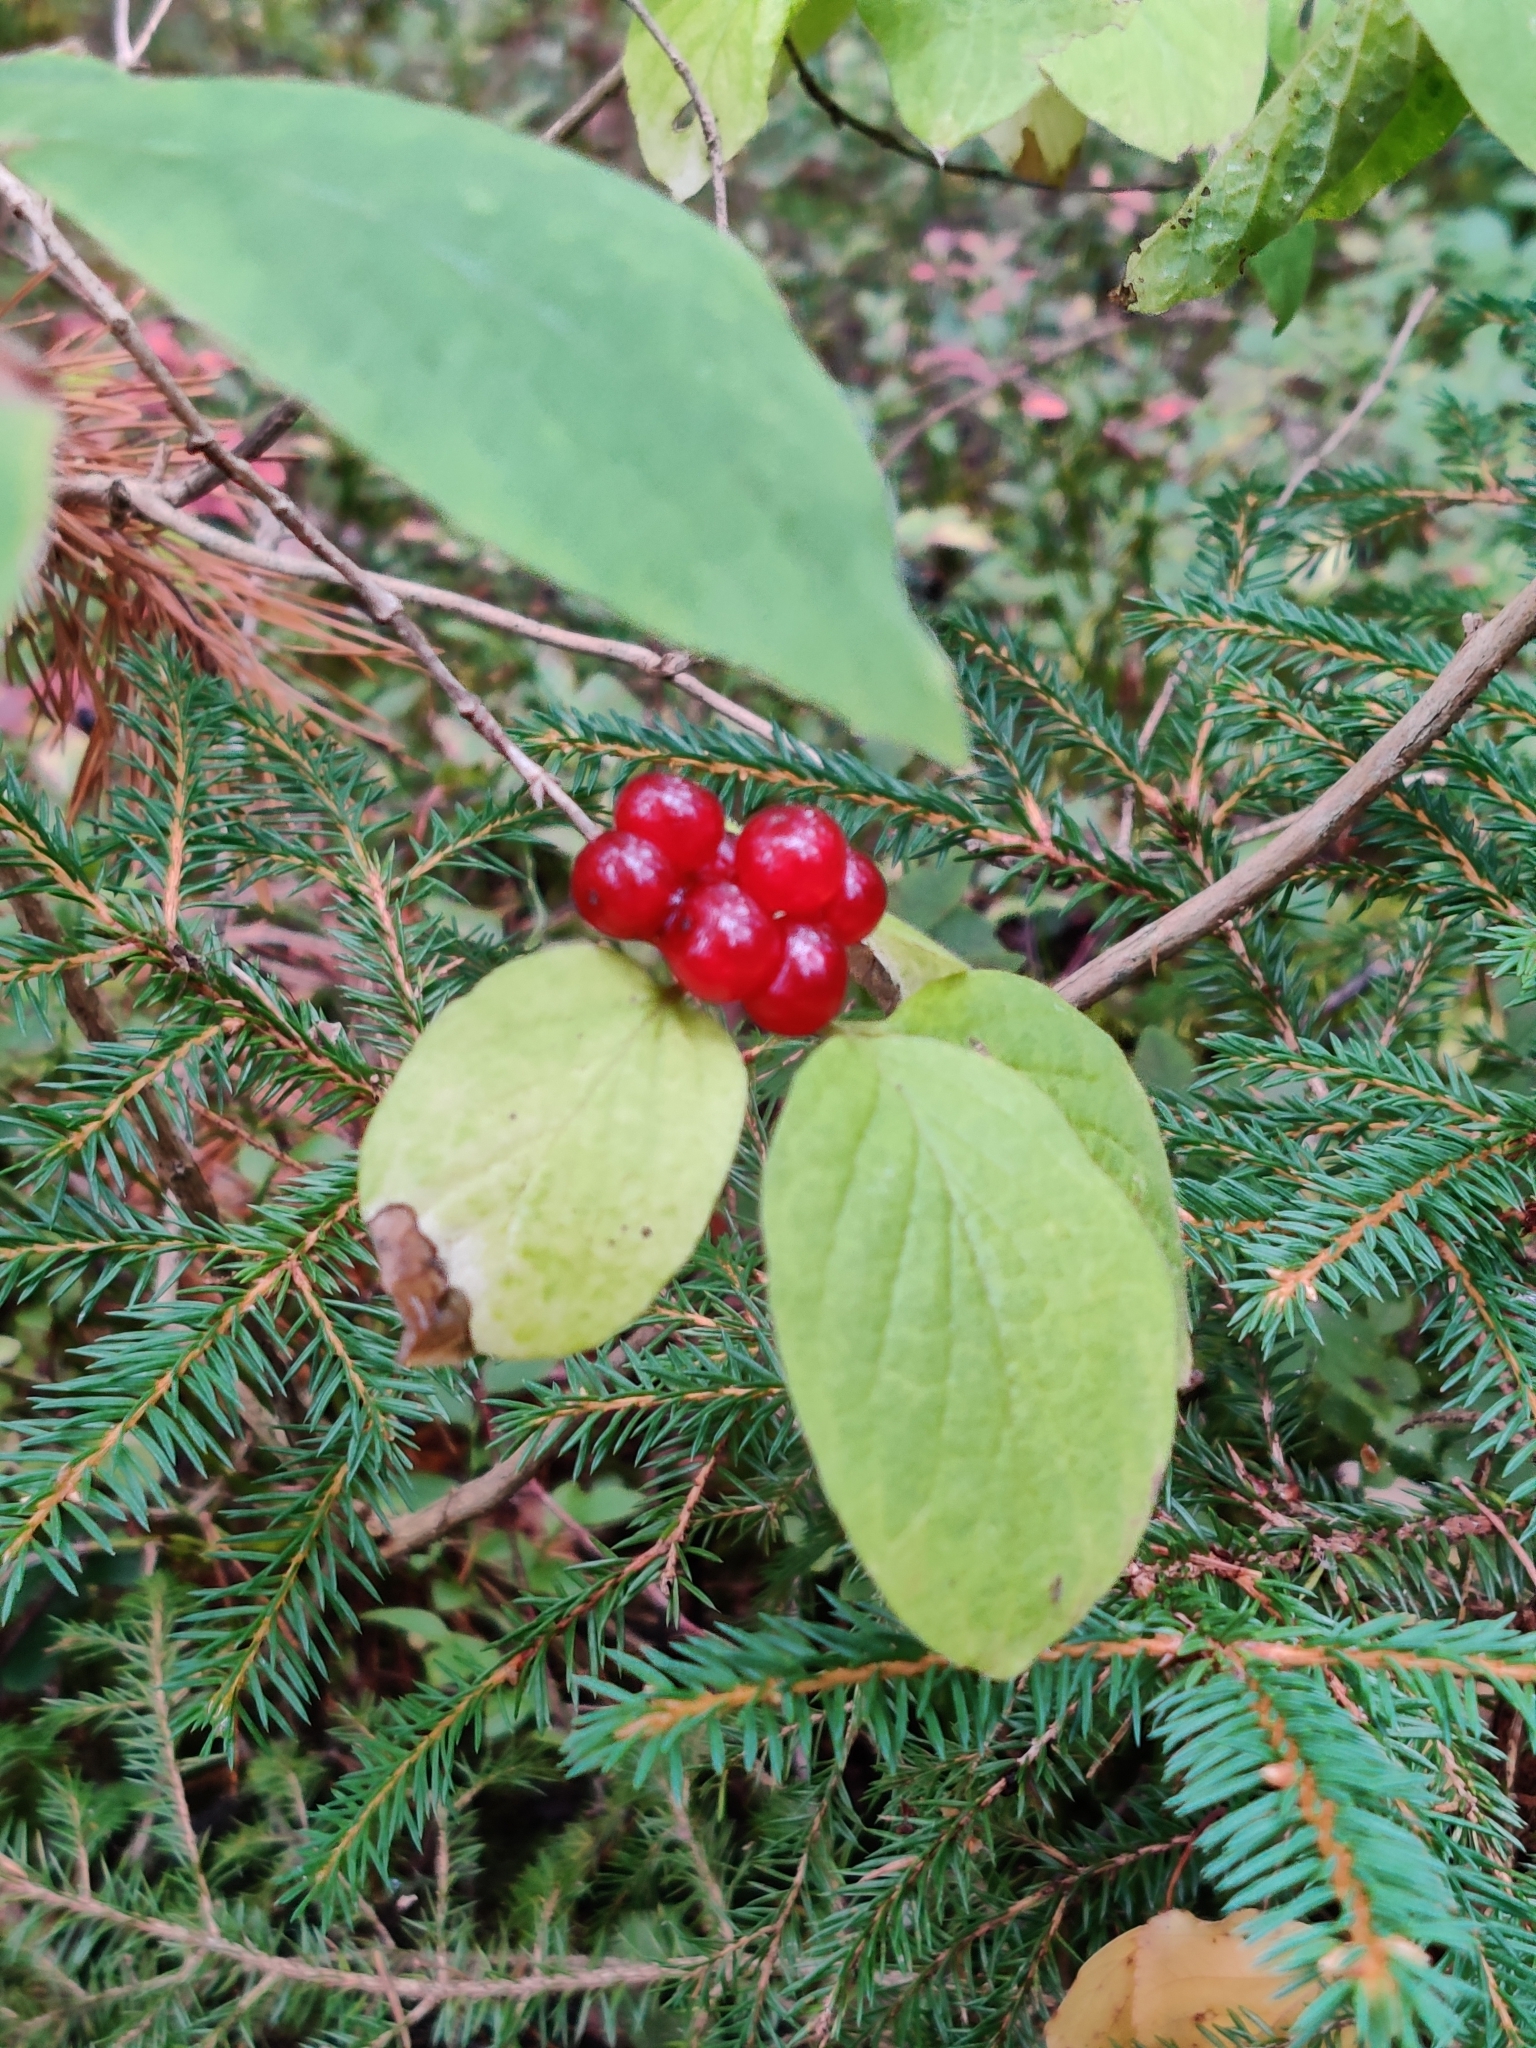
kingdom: Plantae
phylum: Tracheophyta
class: Magnoliopsida
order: Dipsacales
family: Caprifoliaceae
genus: Lonicera
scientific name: Lonicera xylosteum
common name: Fly honeysuckle
